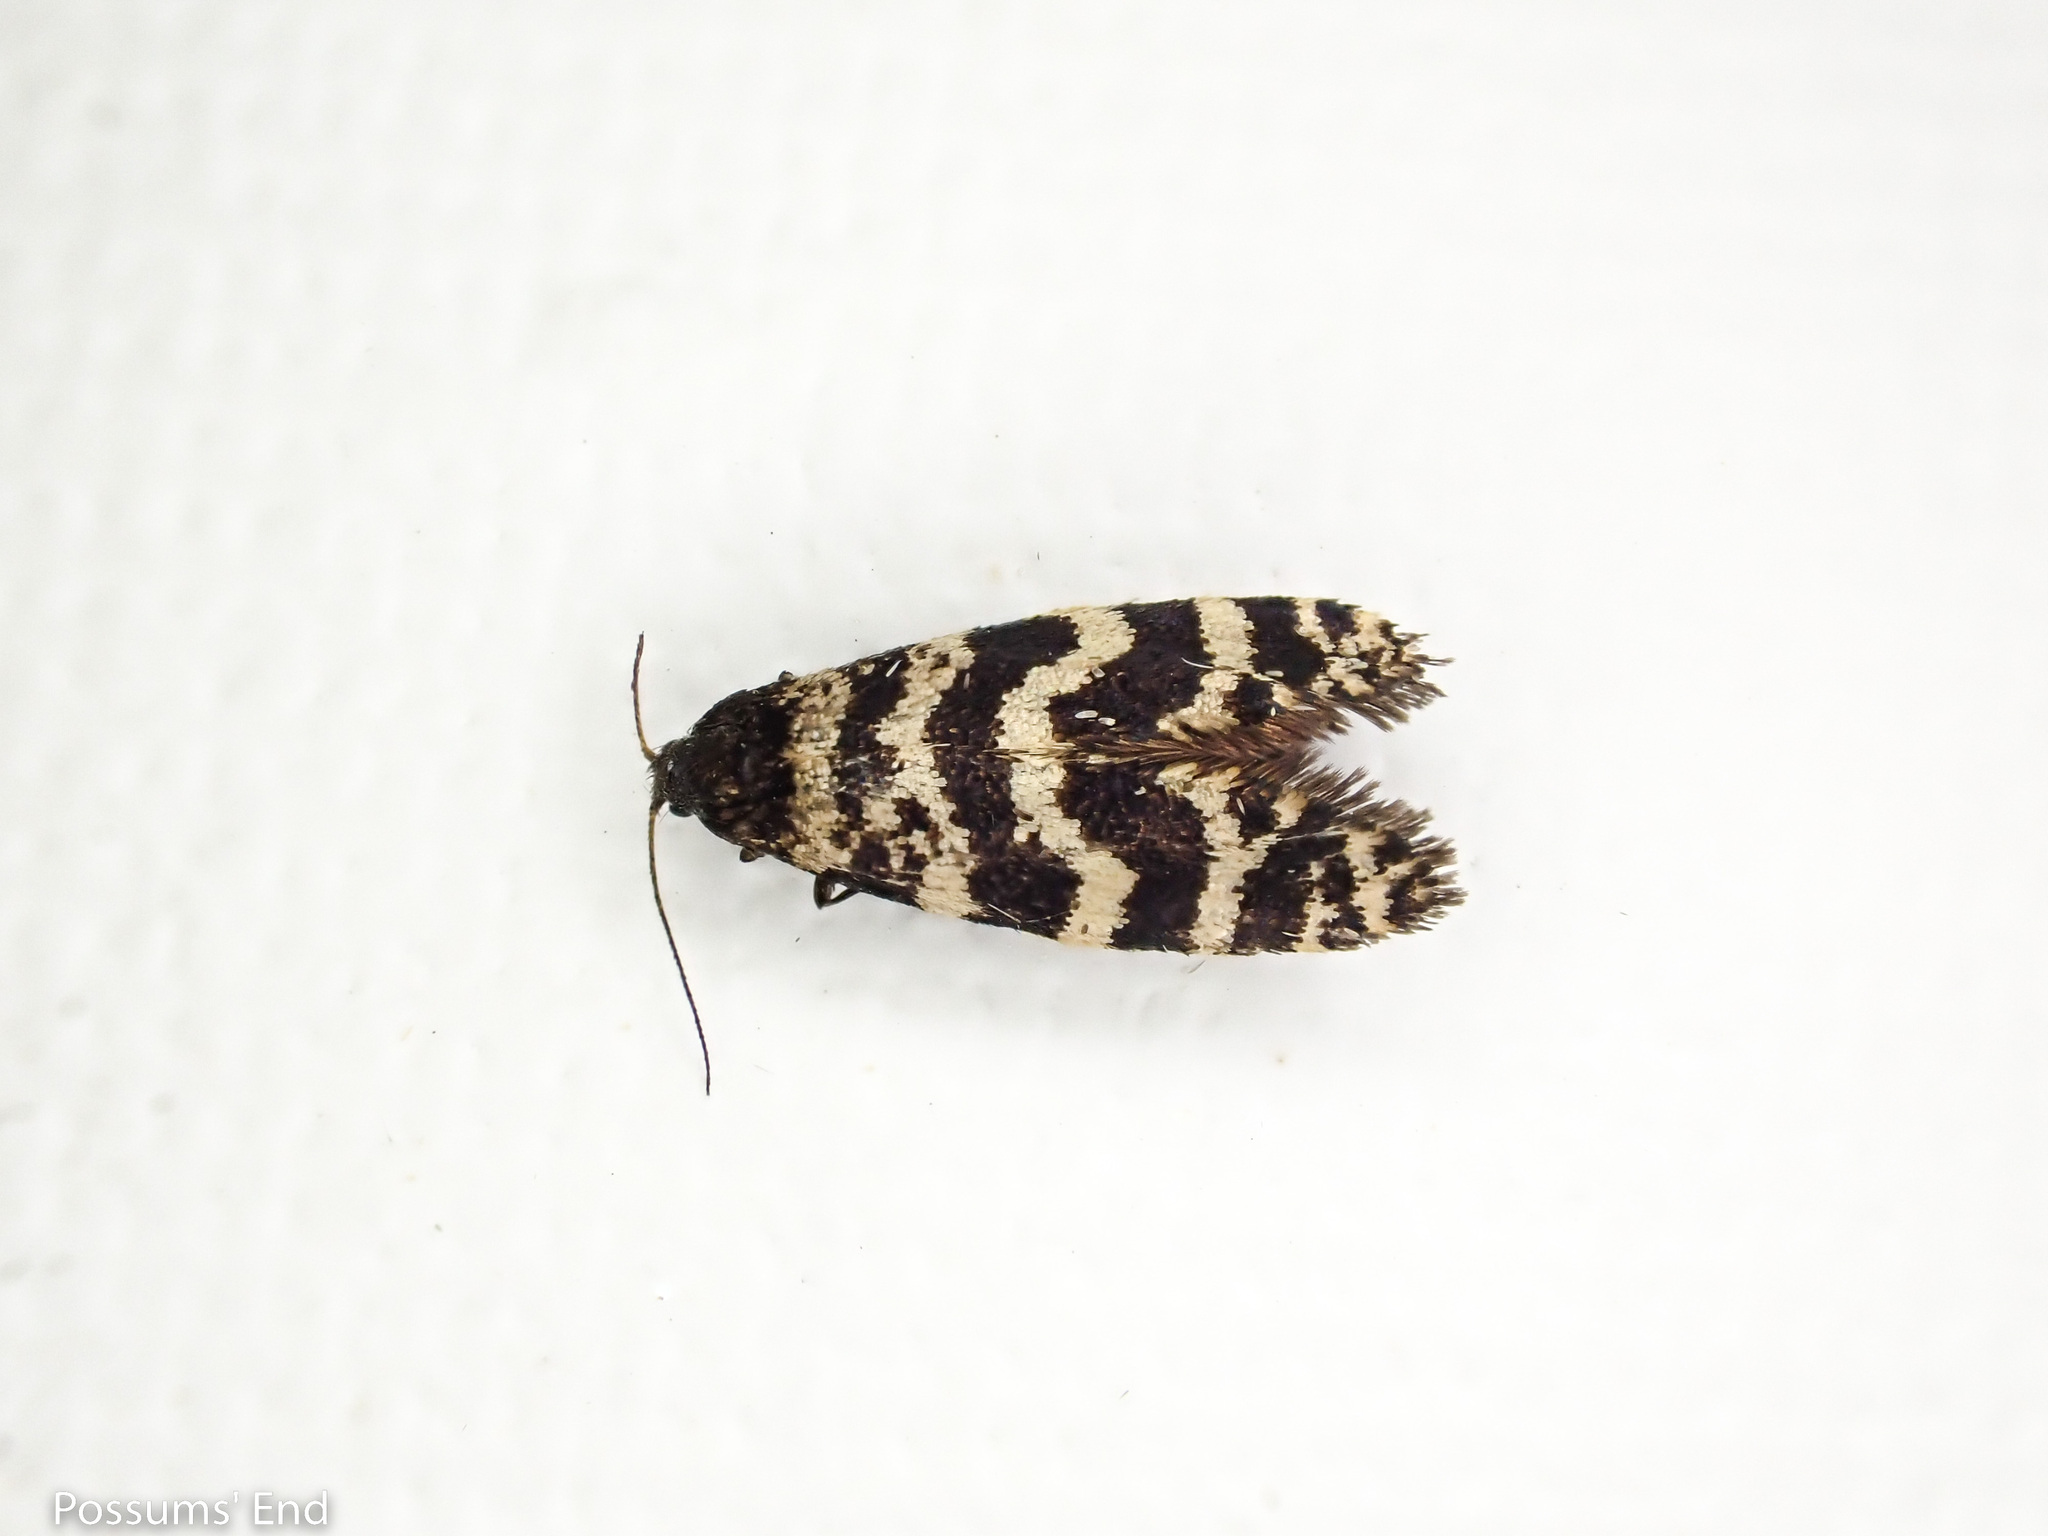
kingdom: Animalia
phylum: Arthropoda
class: Insecta
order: Lepidoptera
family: Psychidae
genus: Mallobathra
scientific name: Mallobathra memotuina
